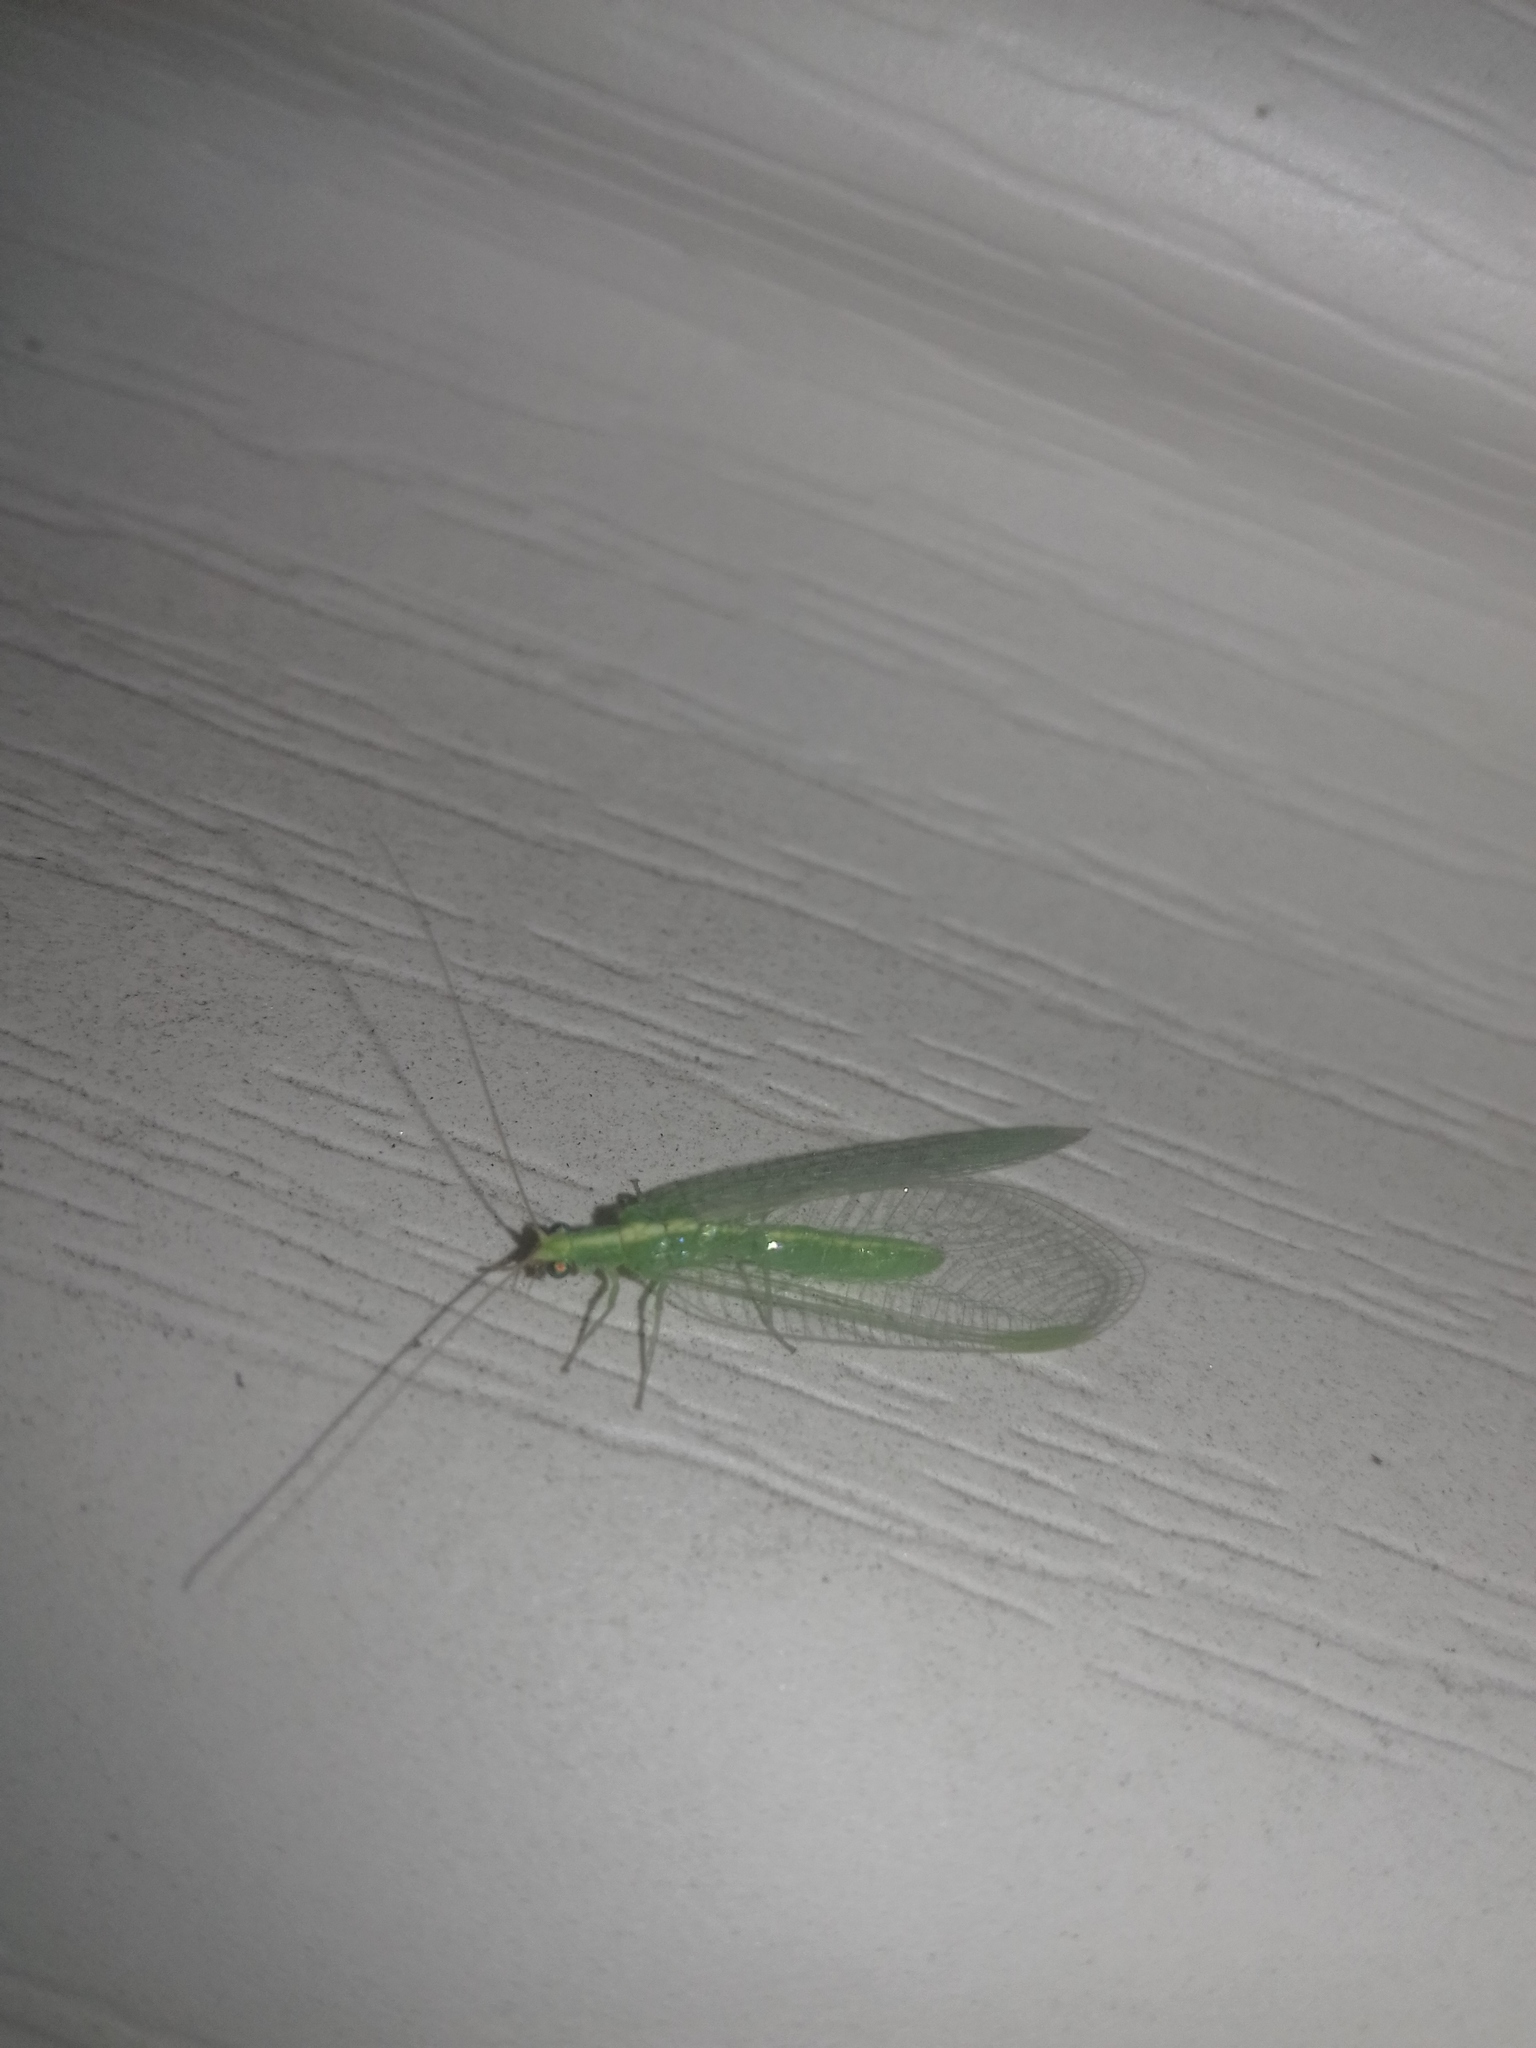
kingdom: Animalia
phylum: Arthropoda
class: Insecta
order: Neuroptera
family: Chrysopidae
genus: Chrysoperla
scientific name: Chrysoperla
